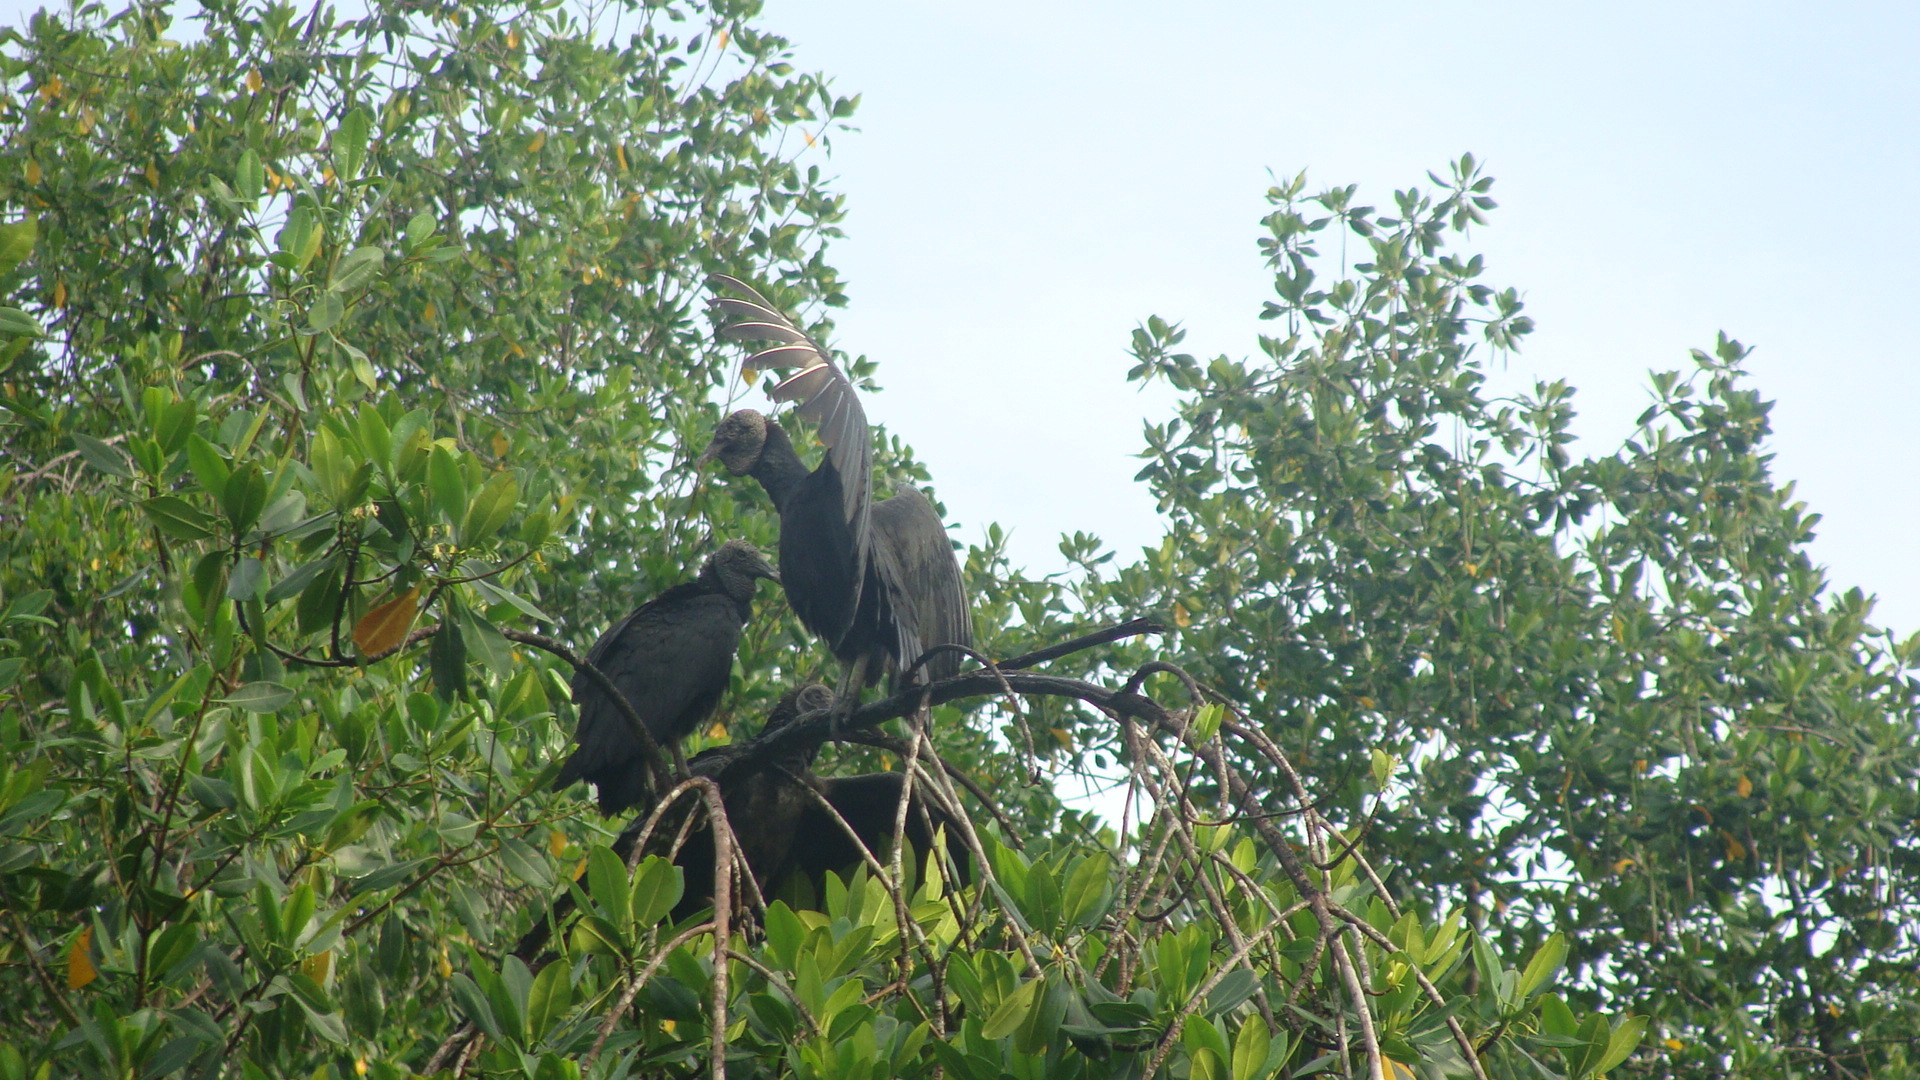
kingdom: Animalia
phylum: Chordata
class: Aves
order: Accipitriformes
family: Cathartidae
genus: Coragyps
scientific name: Coragyps atratus
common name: Black vulture
